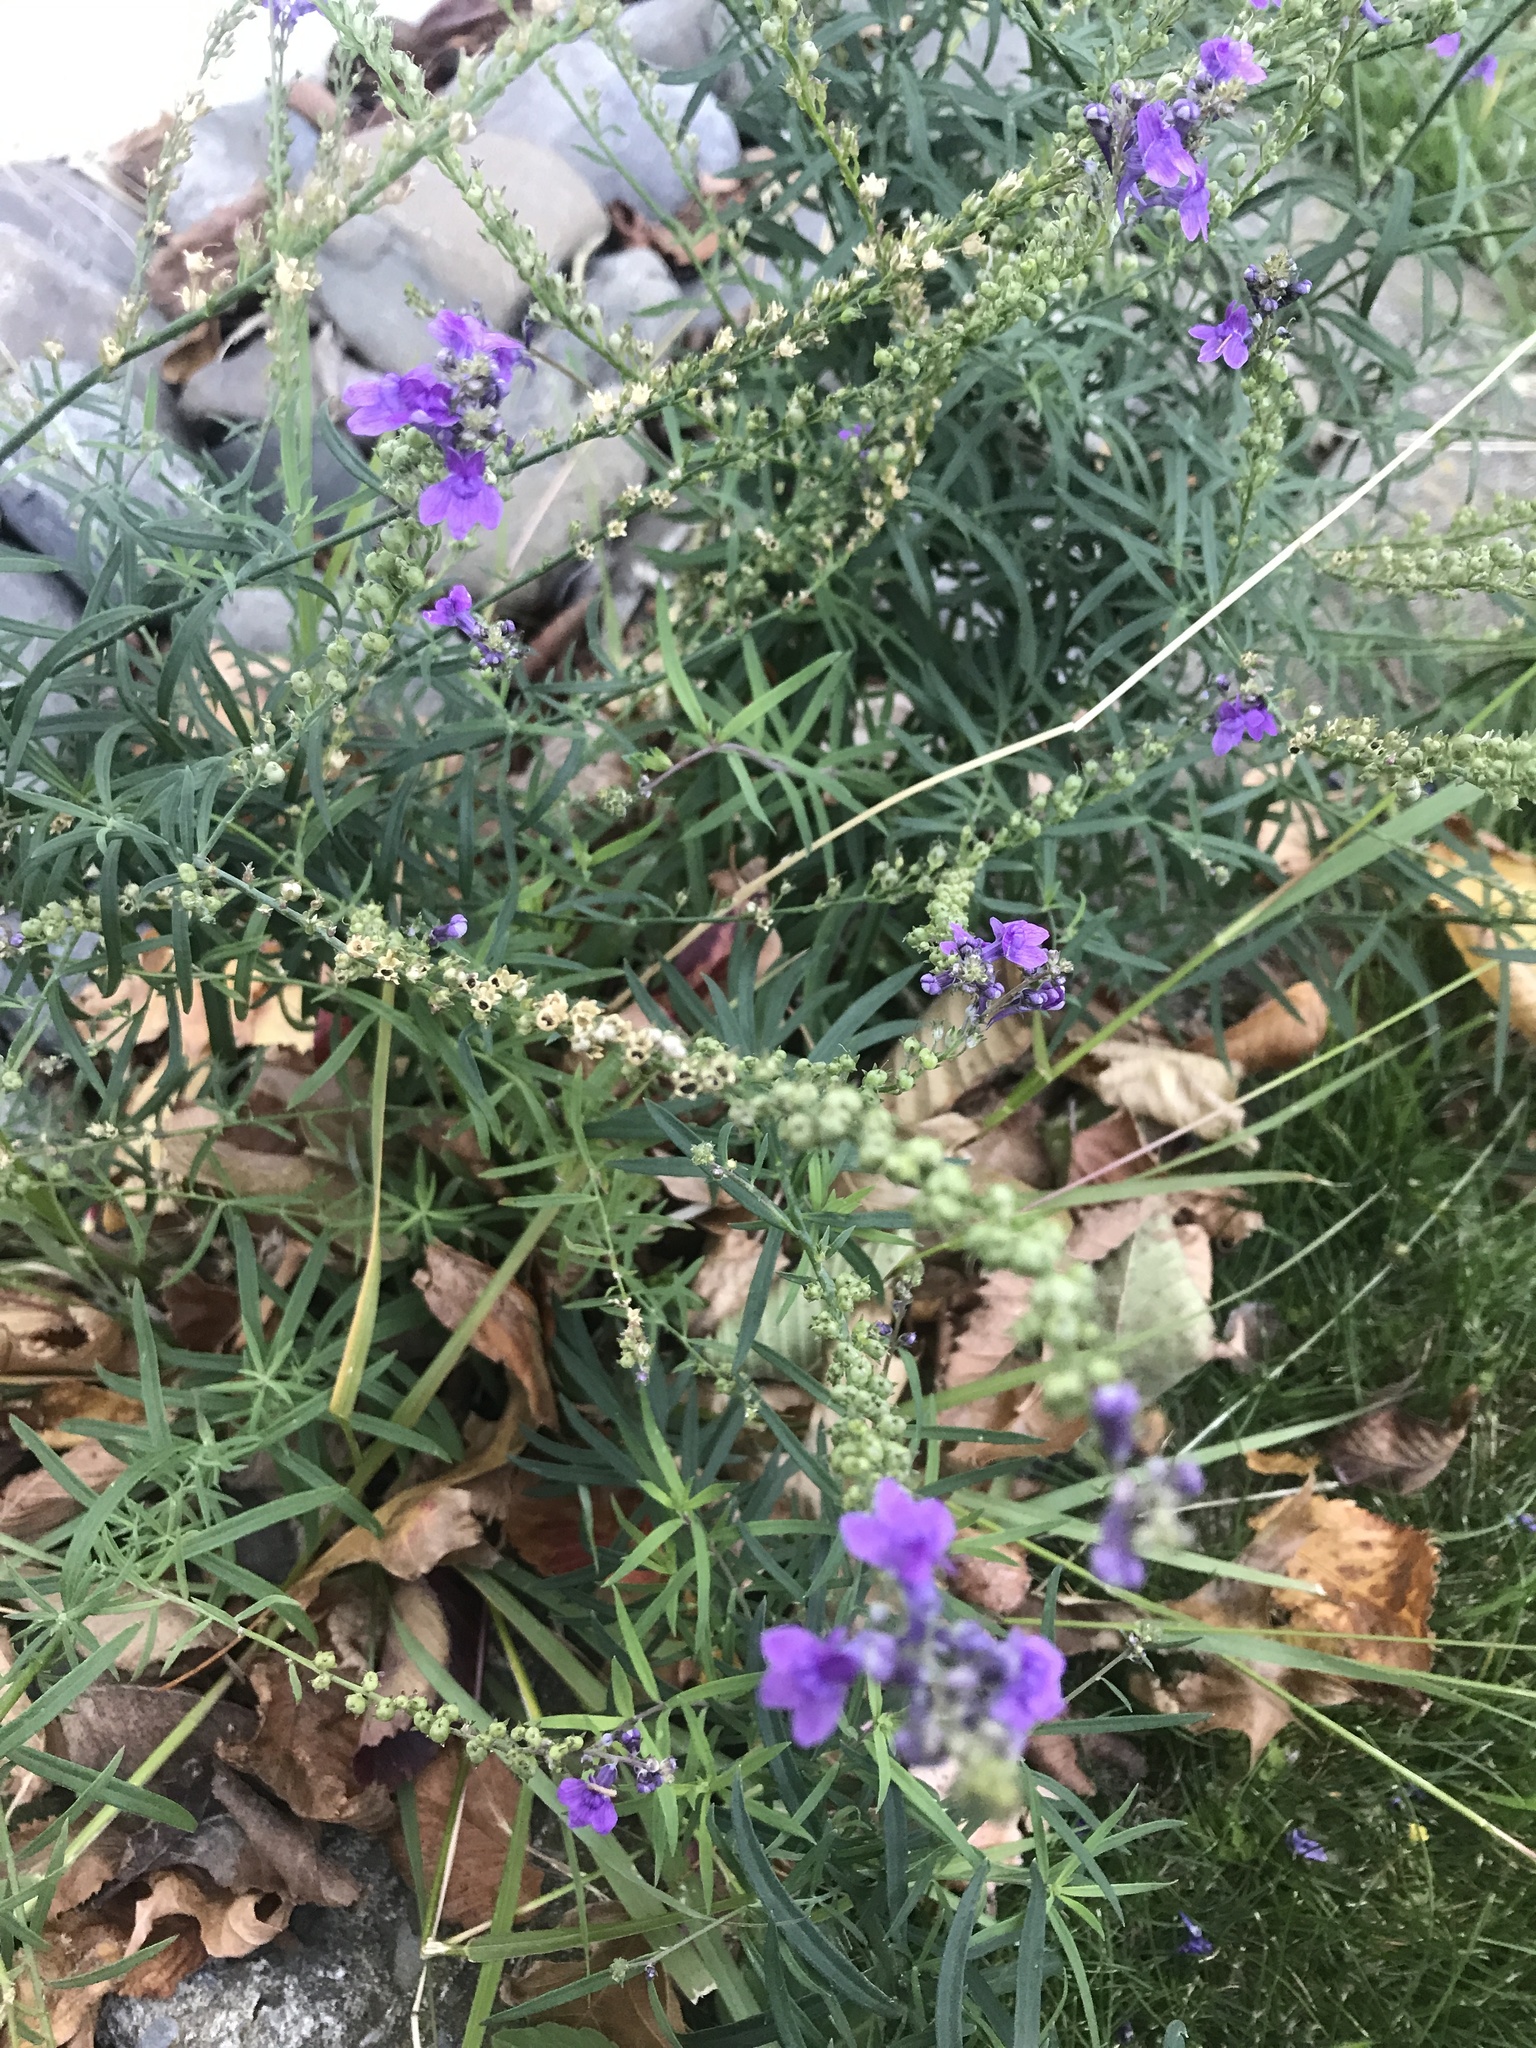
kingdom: Plantae
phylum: Tracheophyta
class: Magnoliopsida
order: Lamiales
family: Plantaginaceae
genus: Linaria
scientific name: Linaria purpurea
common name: Purple toadflax
